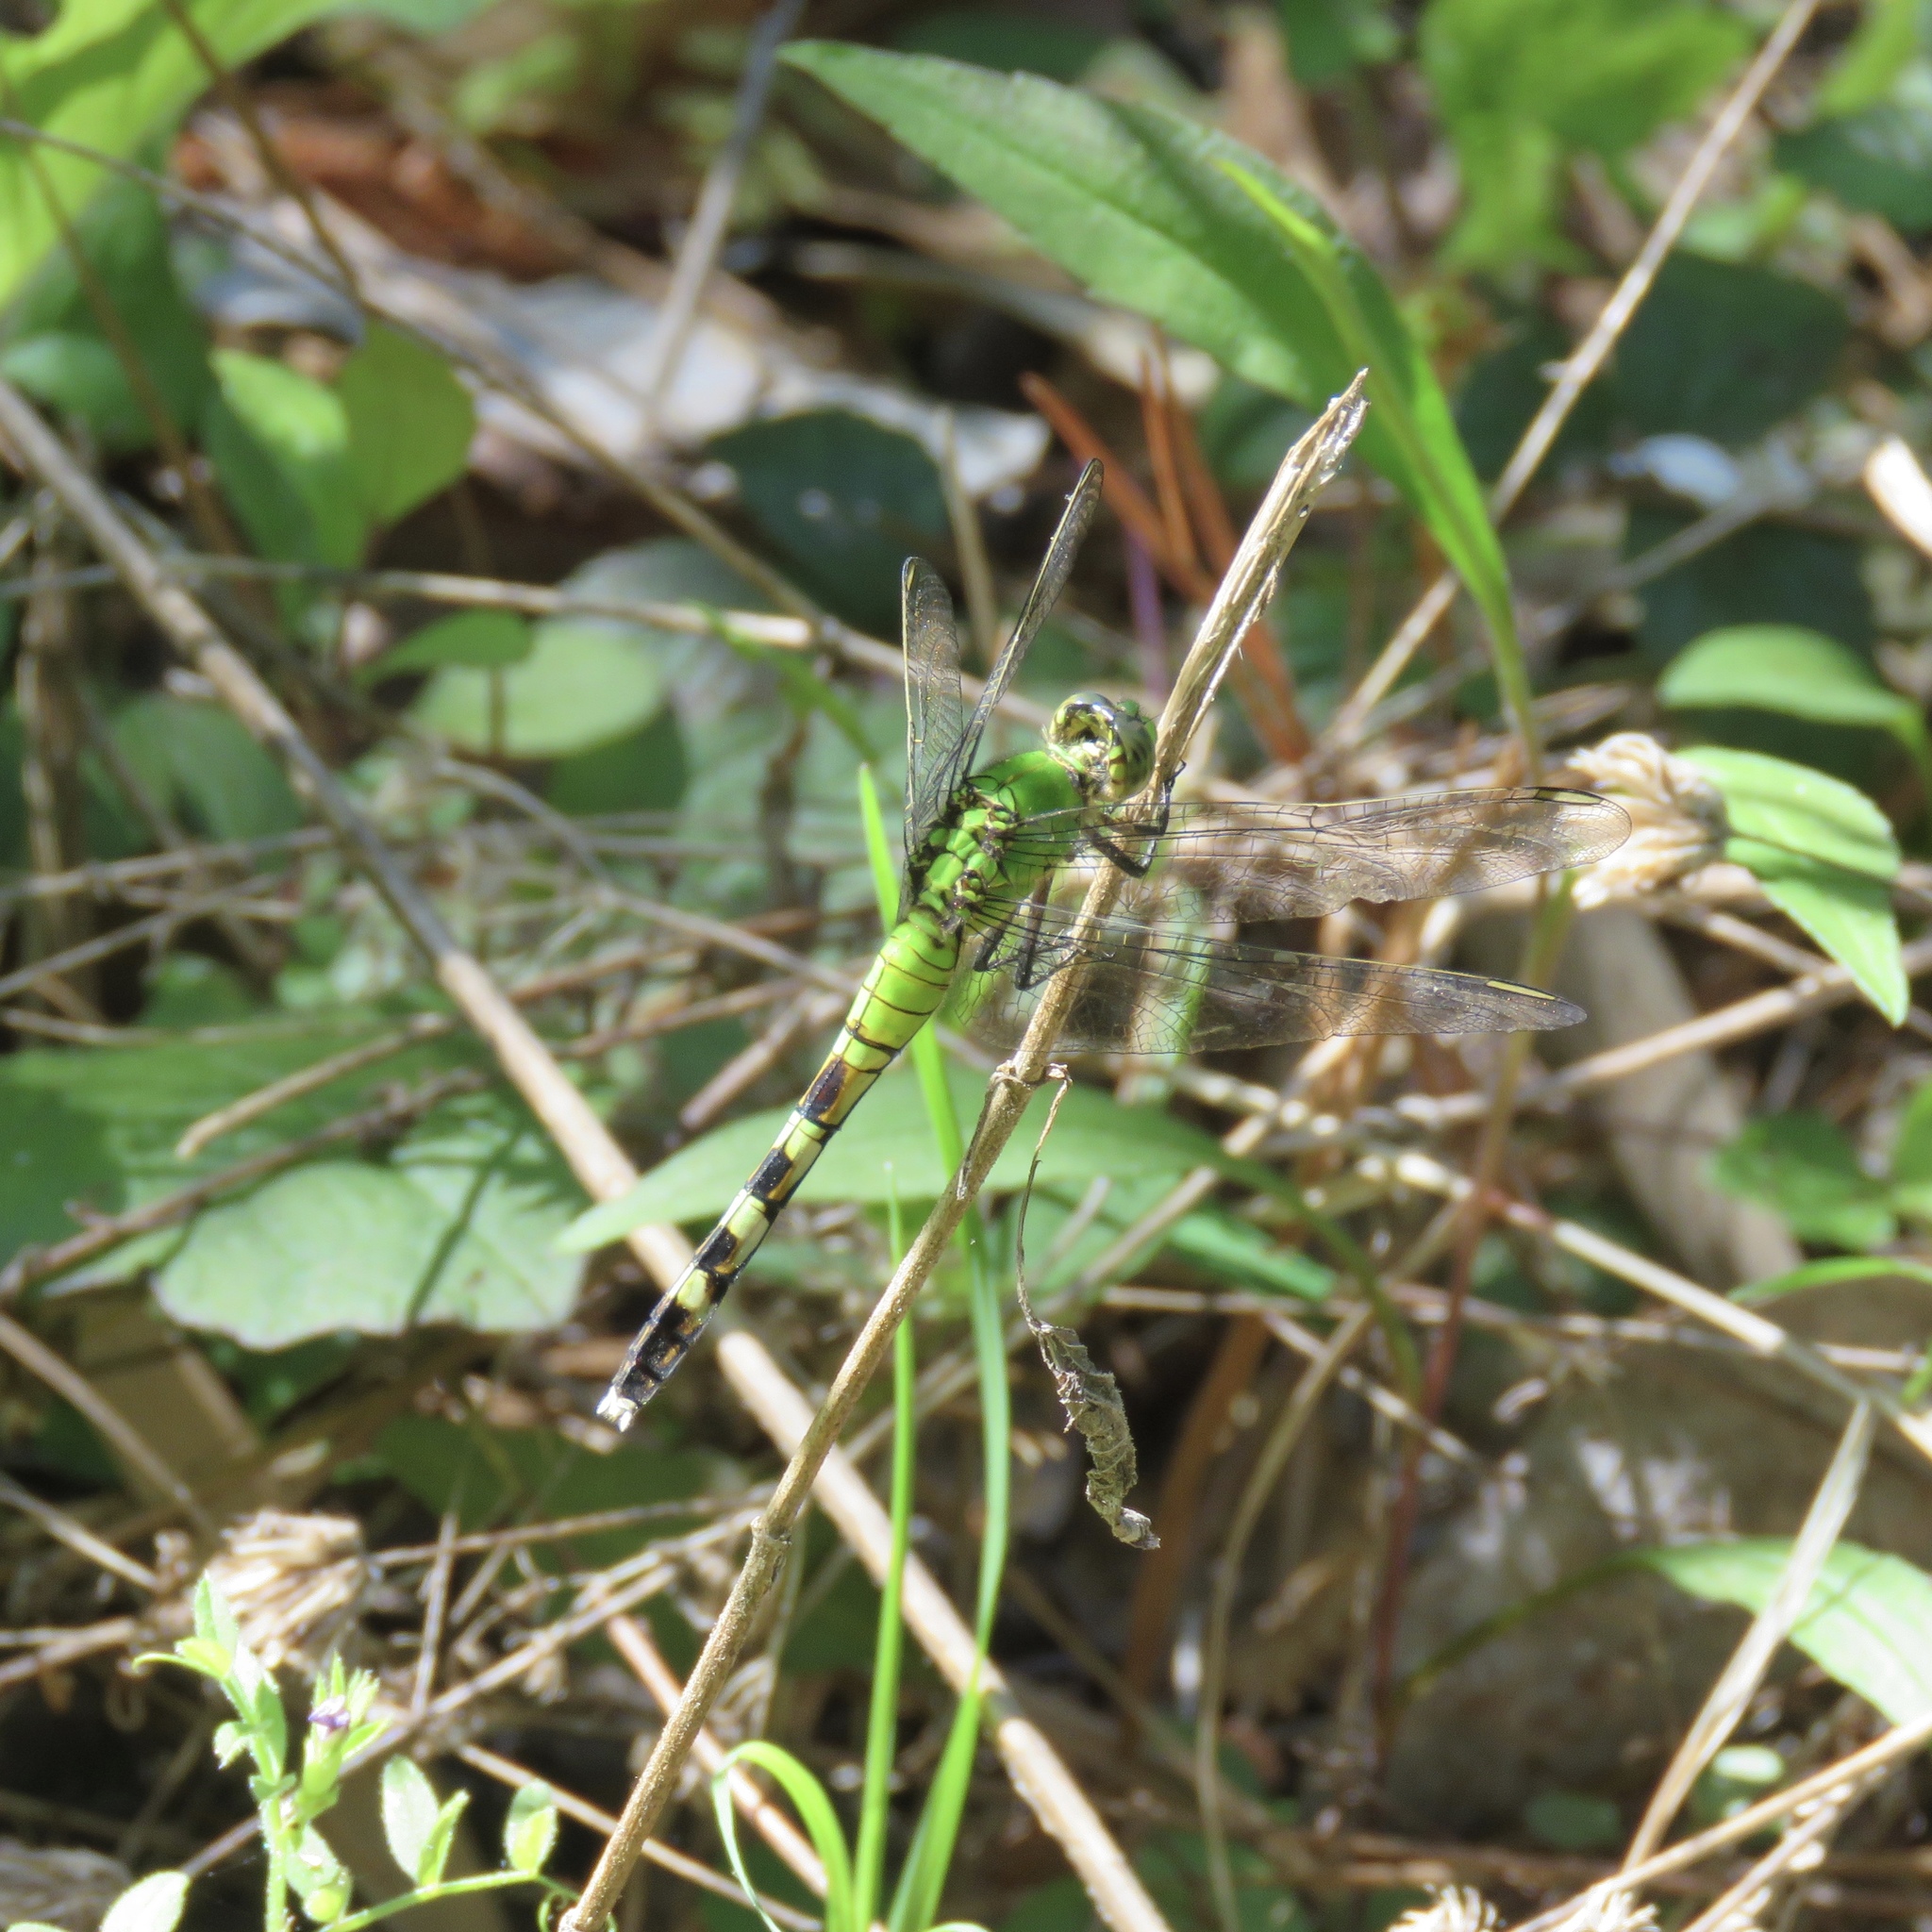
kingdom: Animalia
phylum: Arthropoda
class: Insecta
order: Odonata
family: Libellulidae
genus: Erythemis
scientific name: Erythemis simplicicollis
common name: Eastern pondhawk
